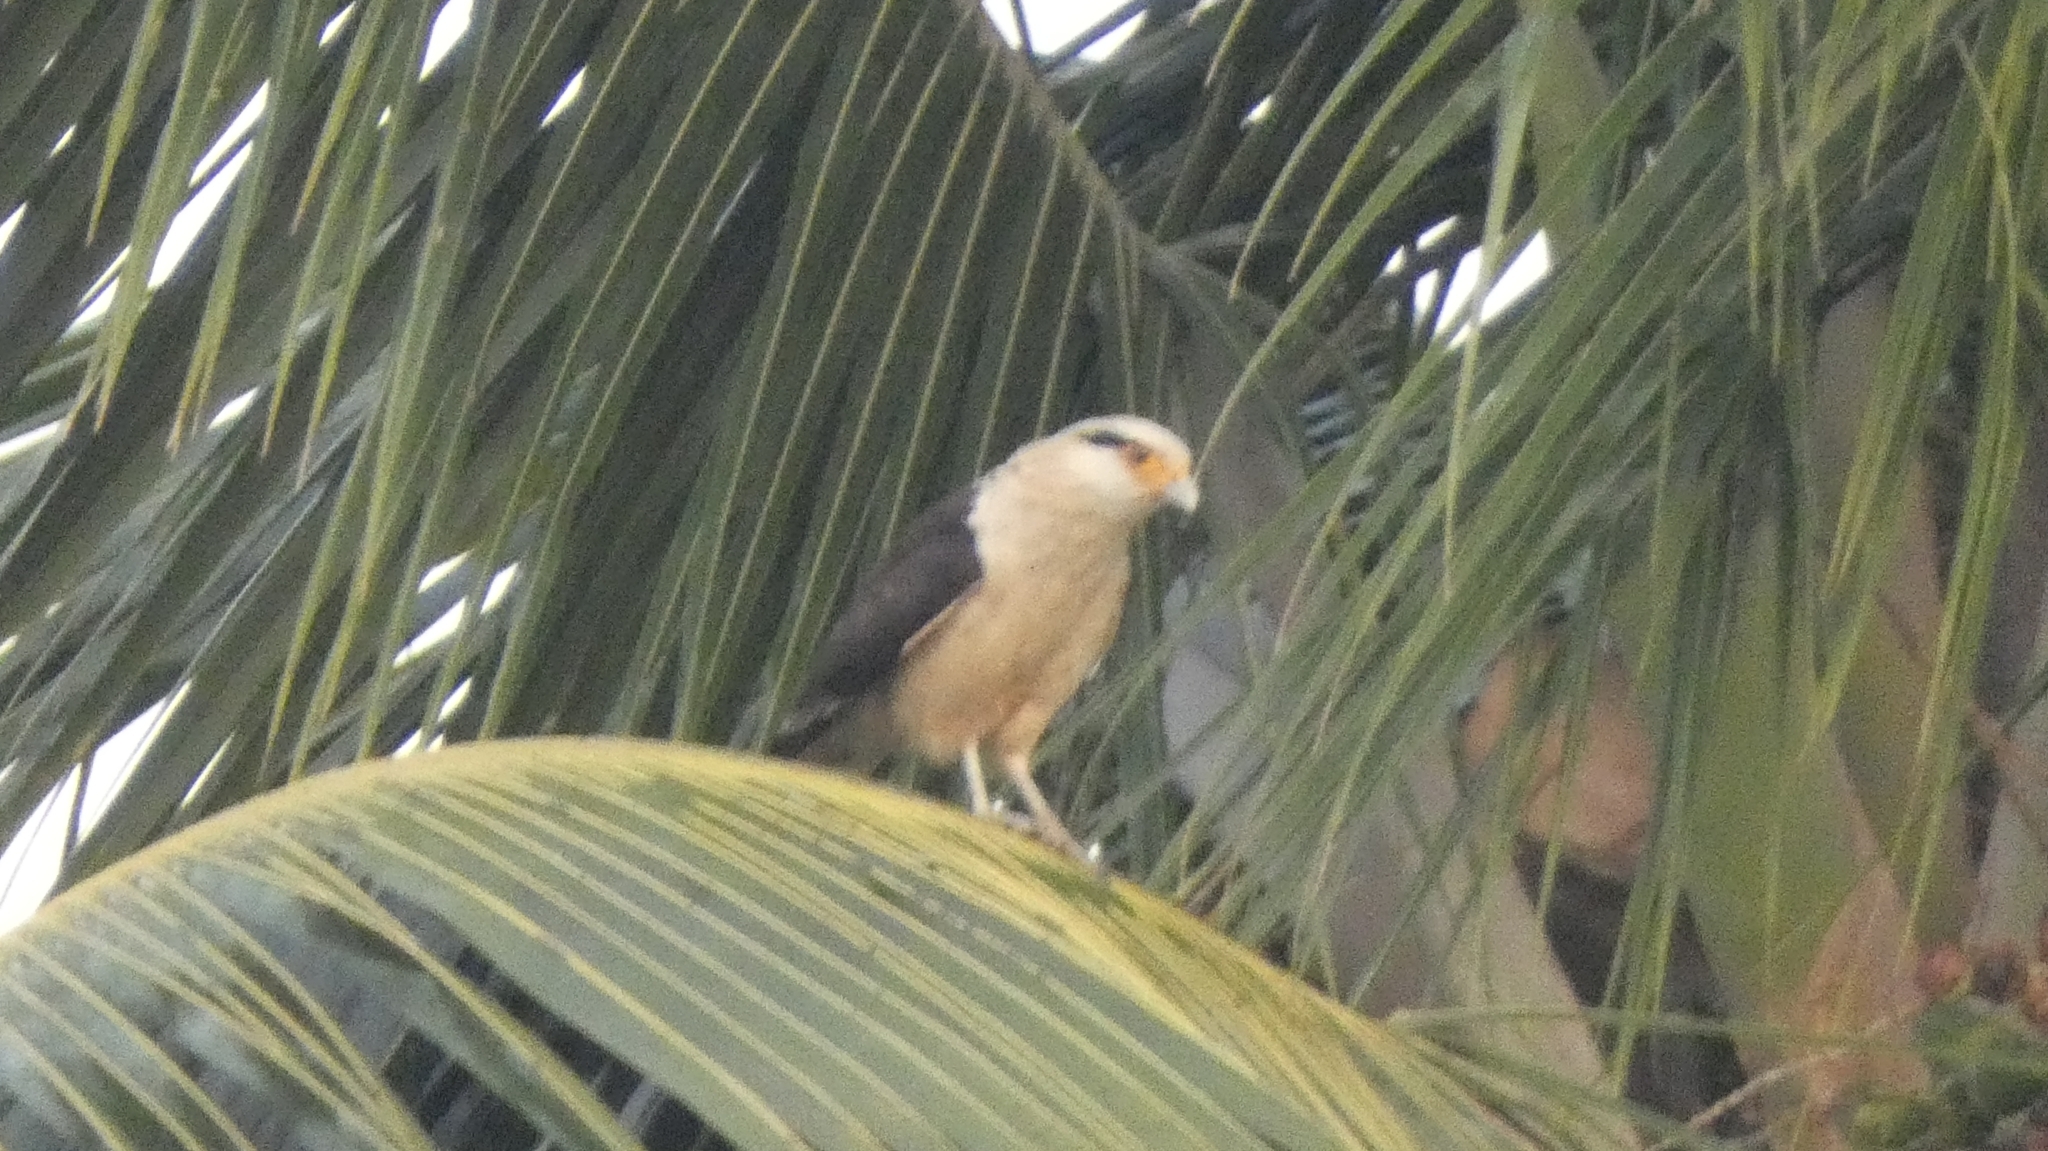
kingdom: Animalia
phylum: Chordata
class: Aves
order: Falconiformes
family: Falconidae
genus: Daptrius
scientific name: Daptrius
